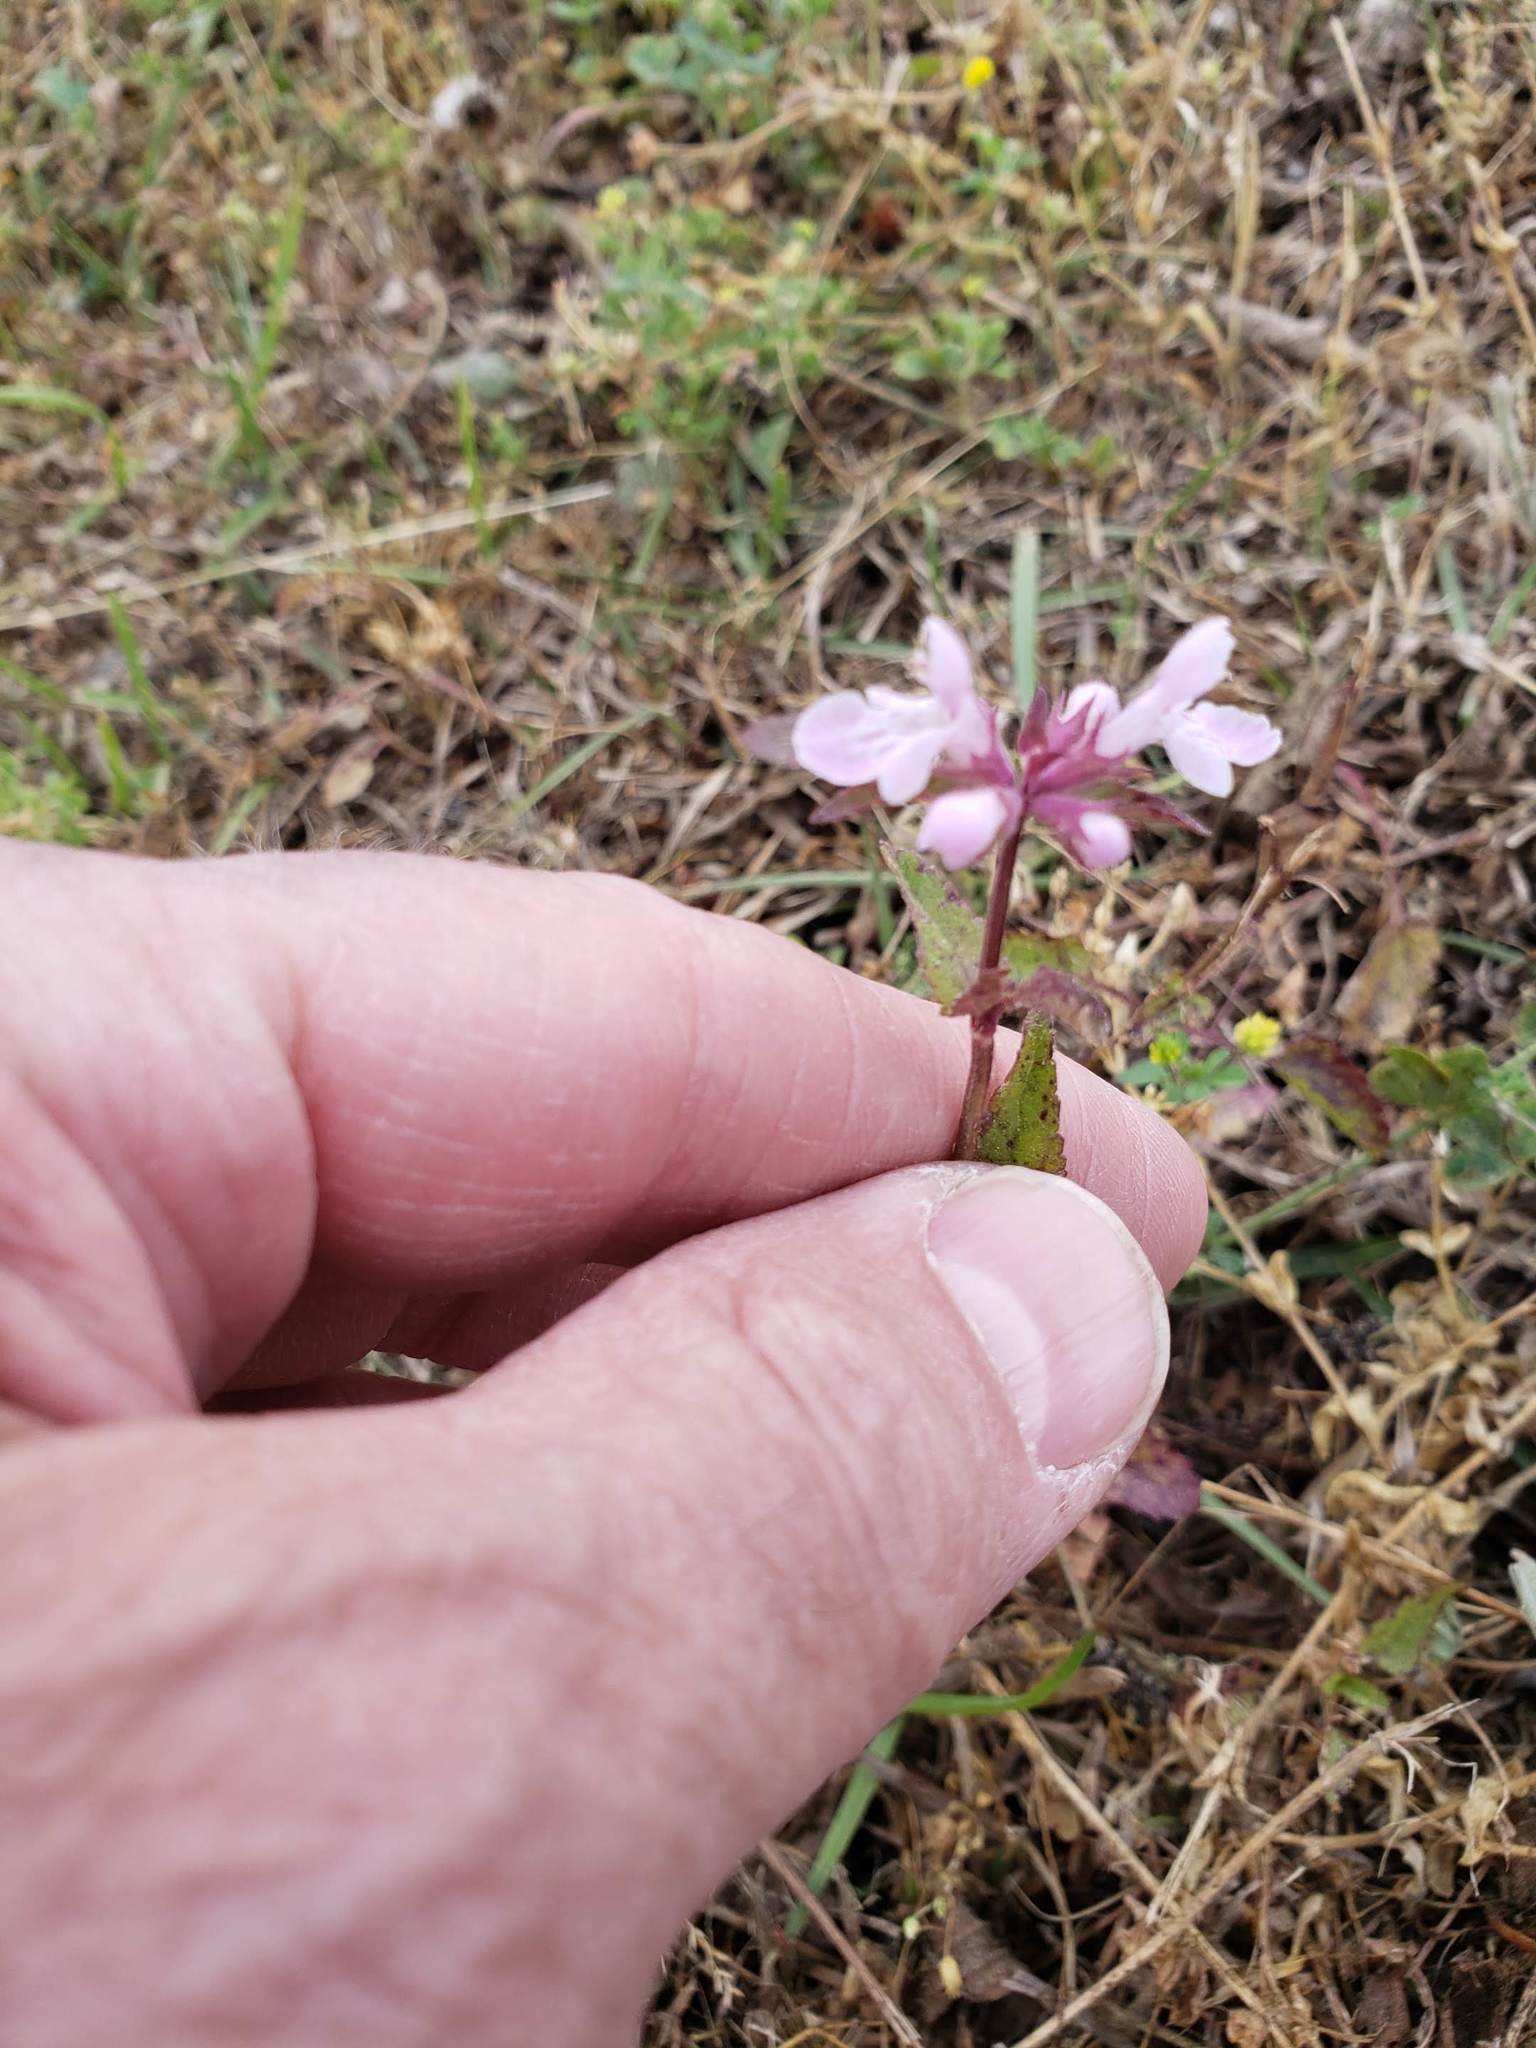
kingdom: Plantae
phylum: Tracheophyta
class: Magnoliopsida
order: Lamiales
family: Lamiaceae
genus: Stachys
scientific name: Stachys floridana
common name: Florida betony
